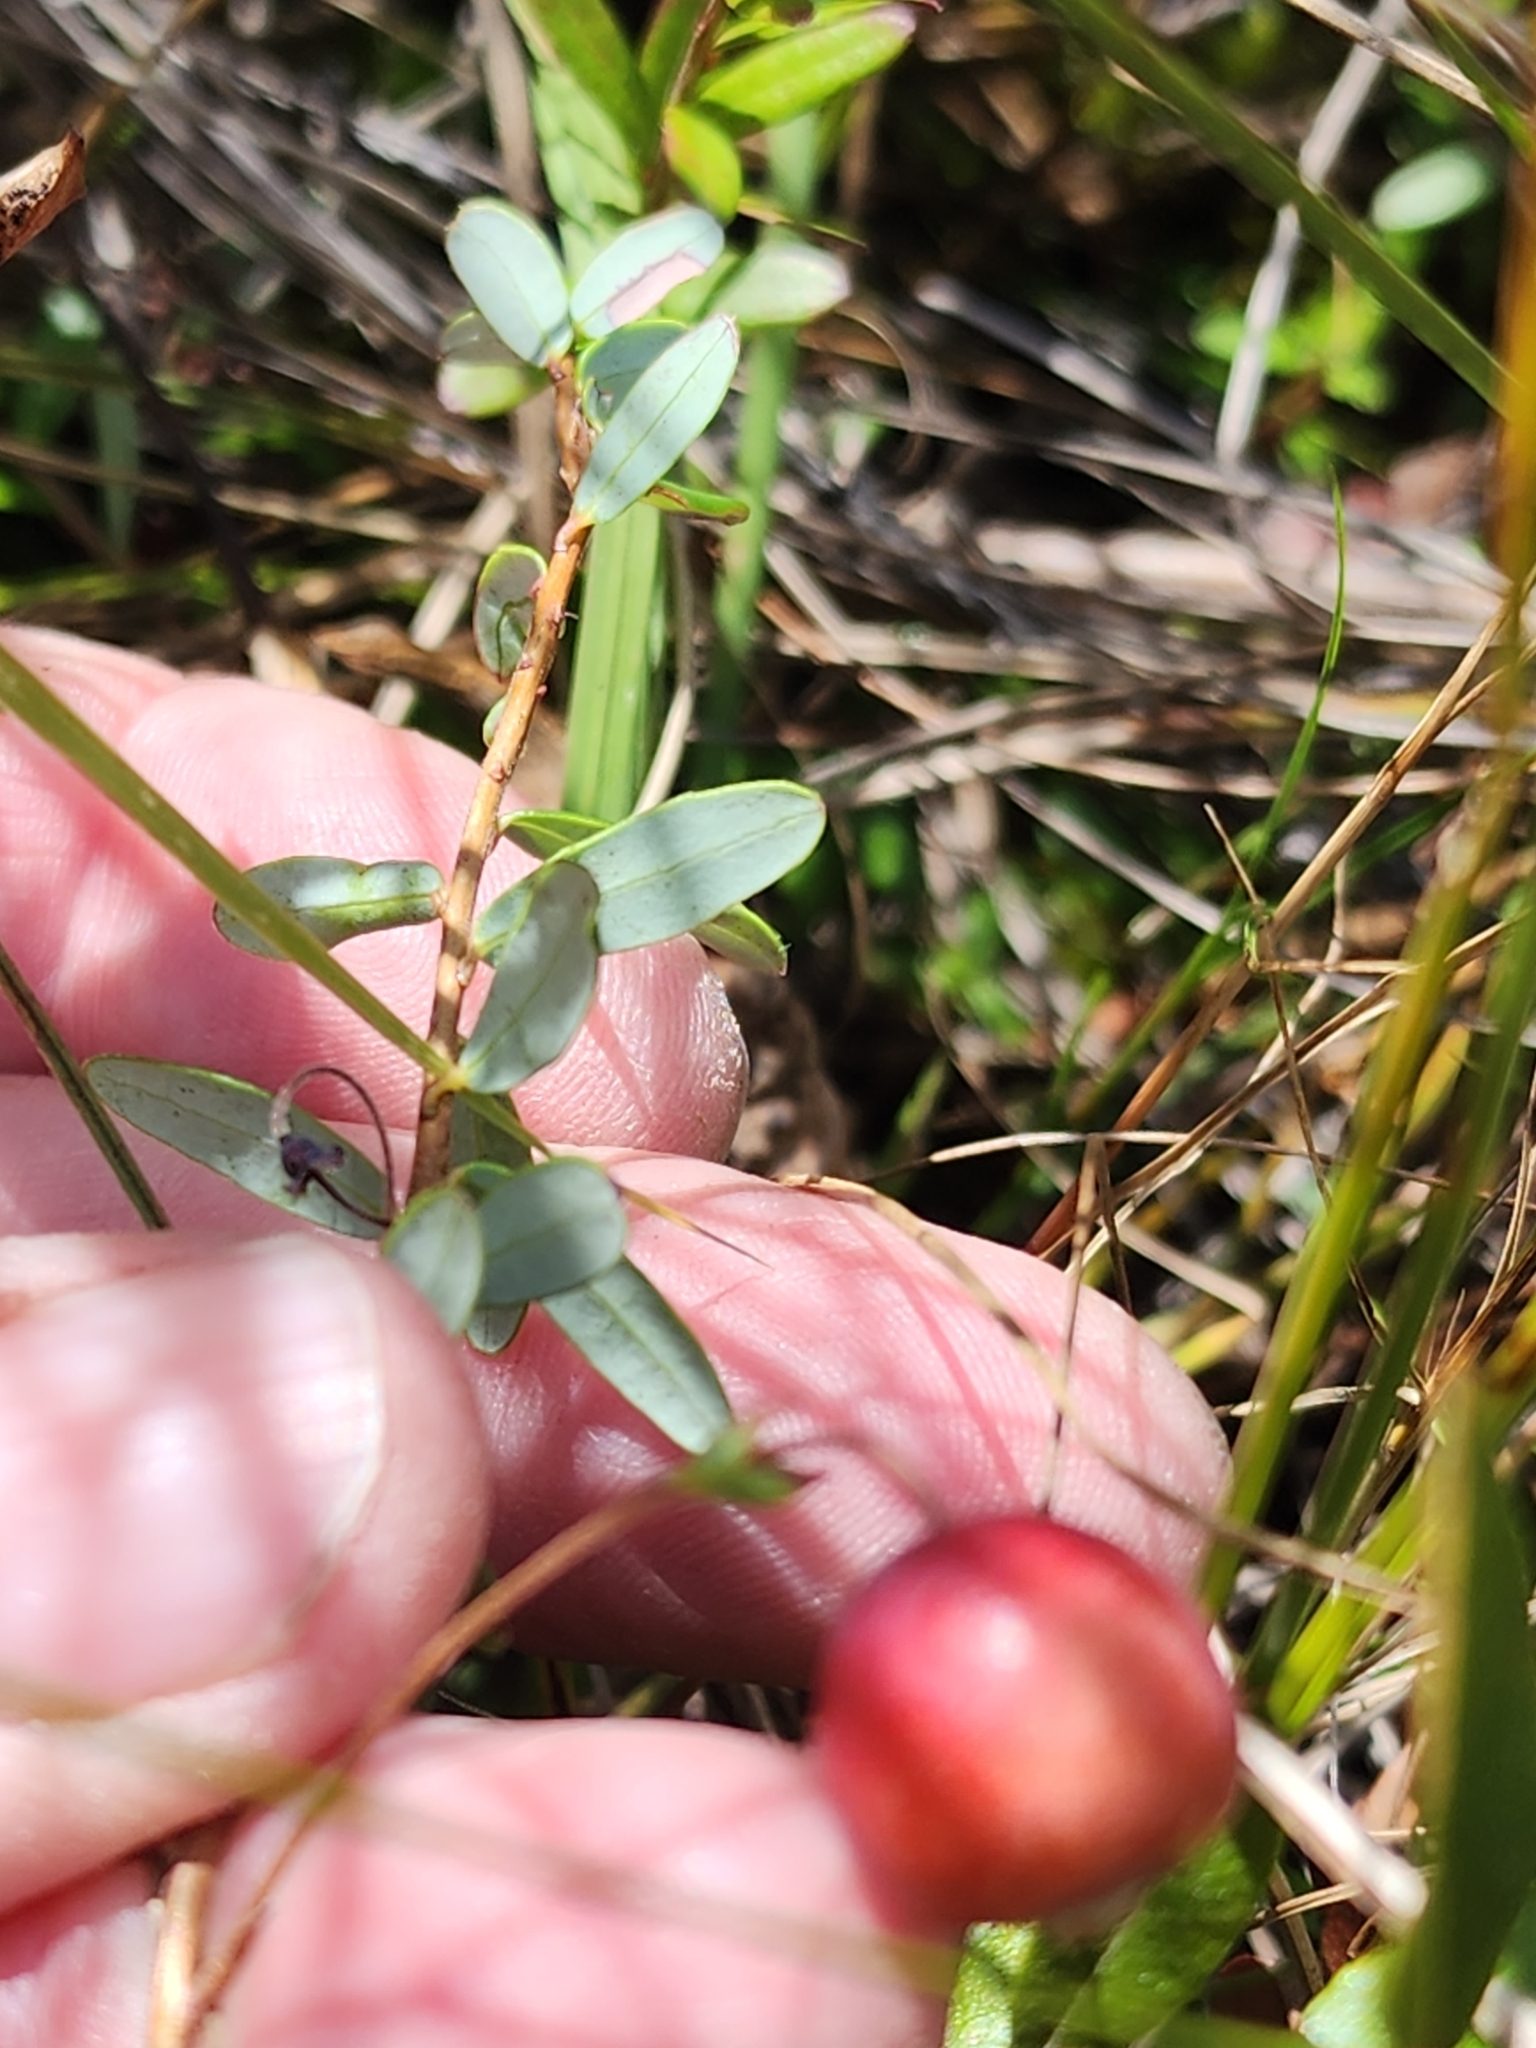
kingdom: Plantae
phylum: Tracheophyta
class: Magnoliopsida
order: Ericales
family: Ericaceae
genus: Vaccinium
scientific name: Vaccinium macrocarpon
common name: American cranberry
